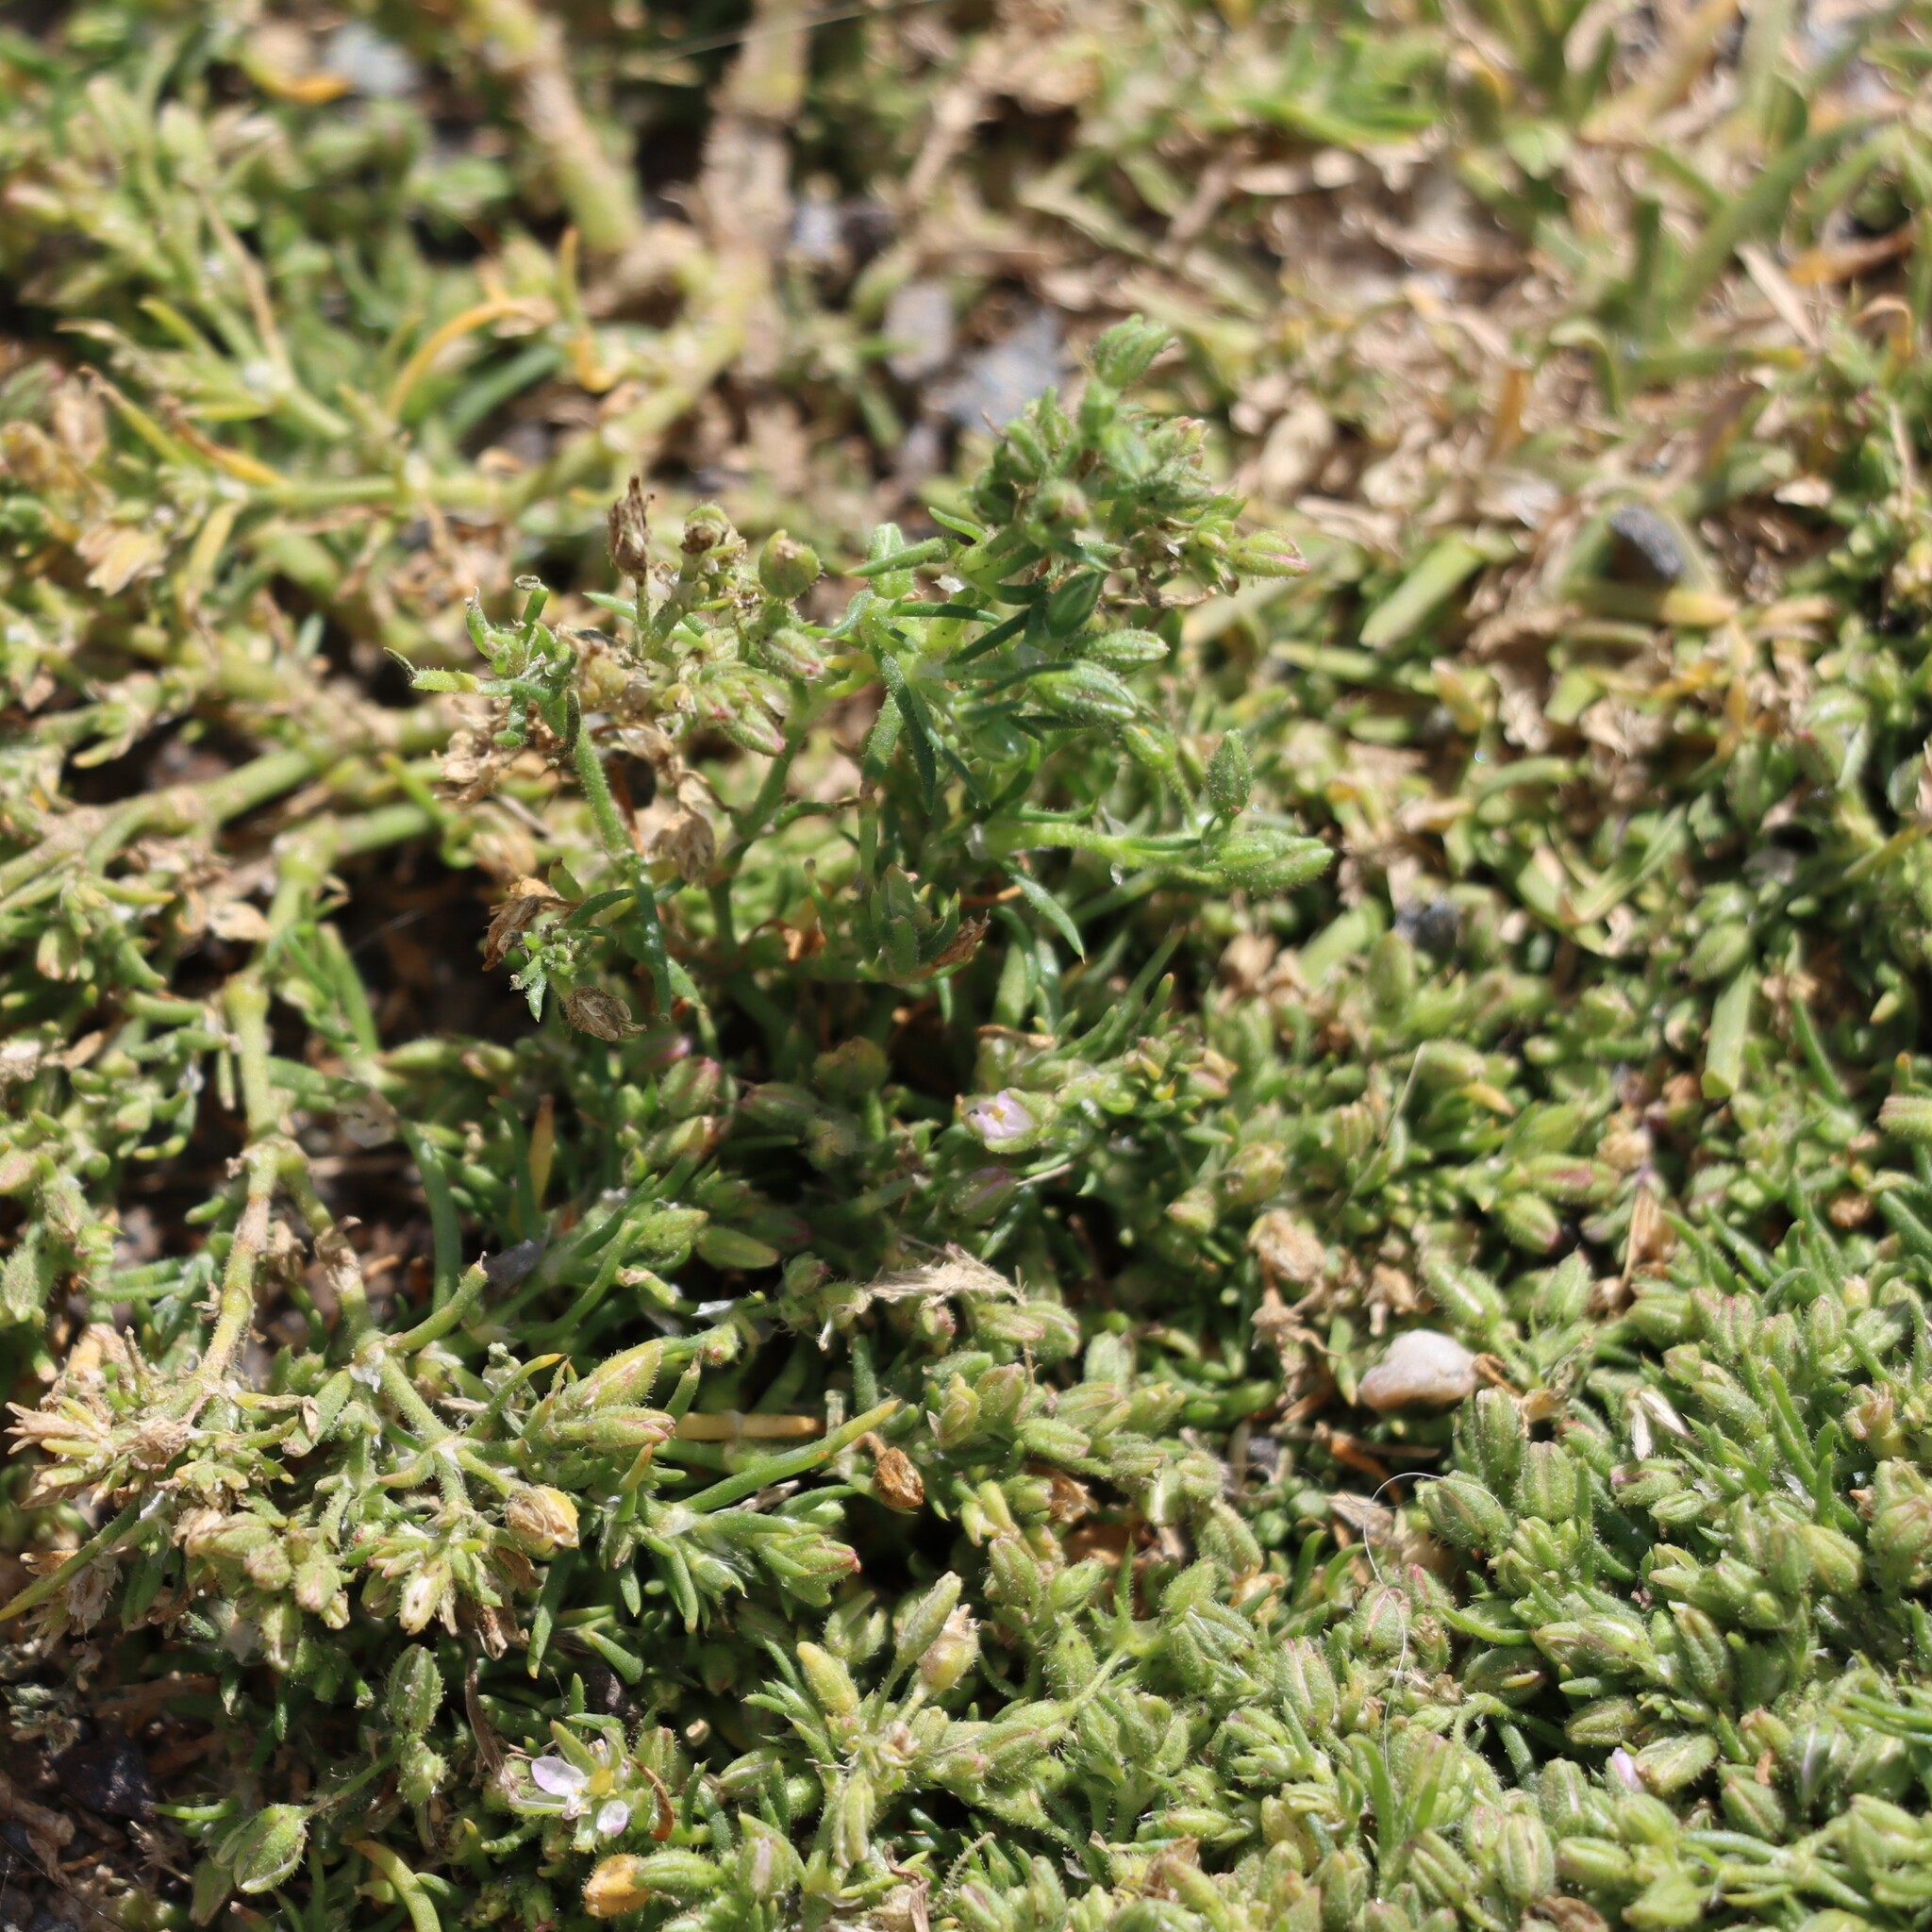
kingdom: Plantae
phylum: Tracheophyta
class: Magnoliopsida
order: Caryophyllales
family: Caryophyllaceae
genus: Spergularia
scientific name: Spergularia bocconei
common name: Greek sea-spurrey
